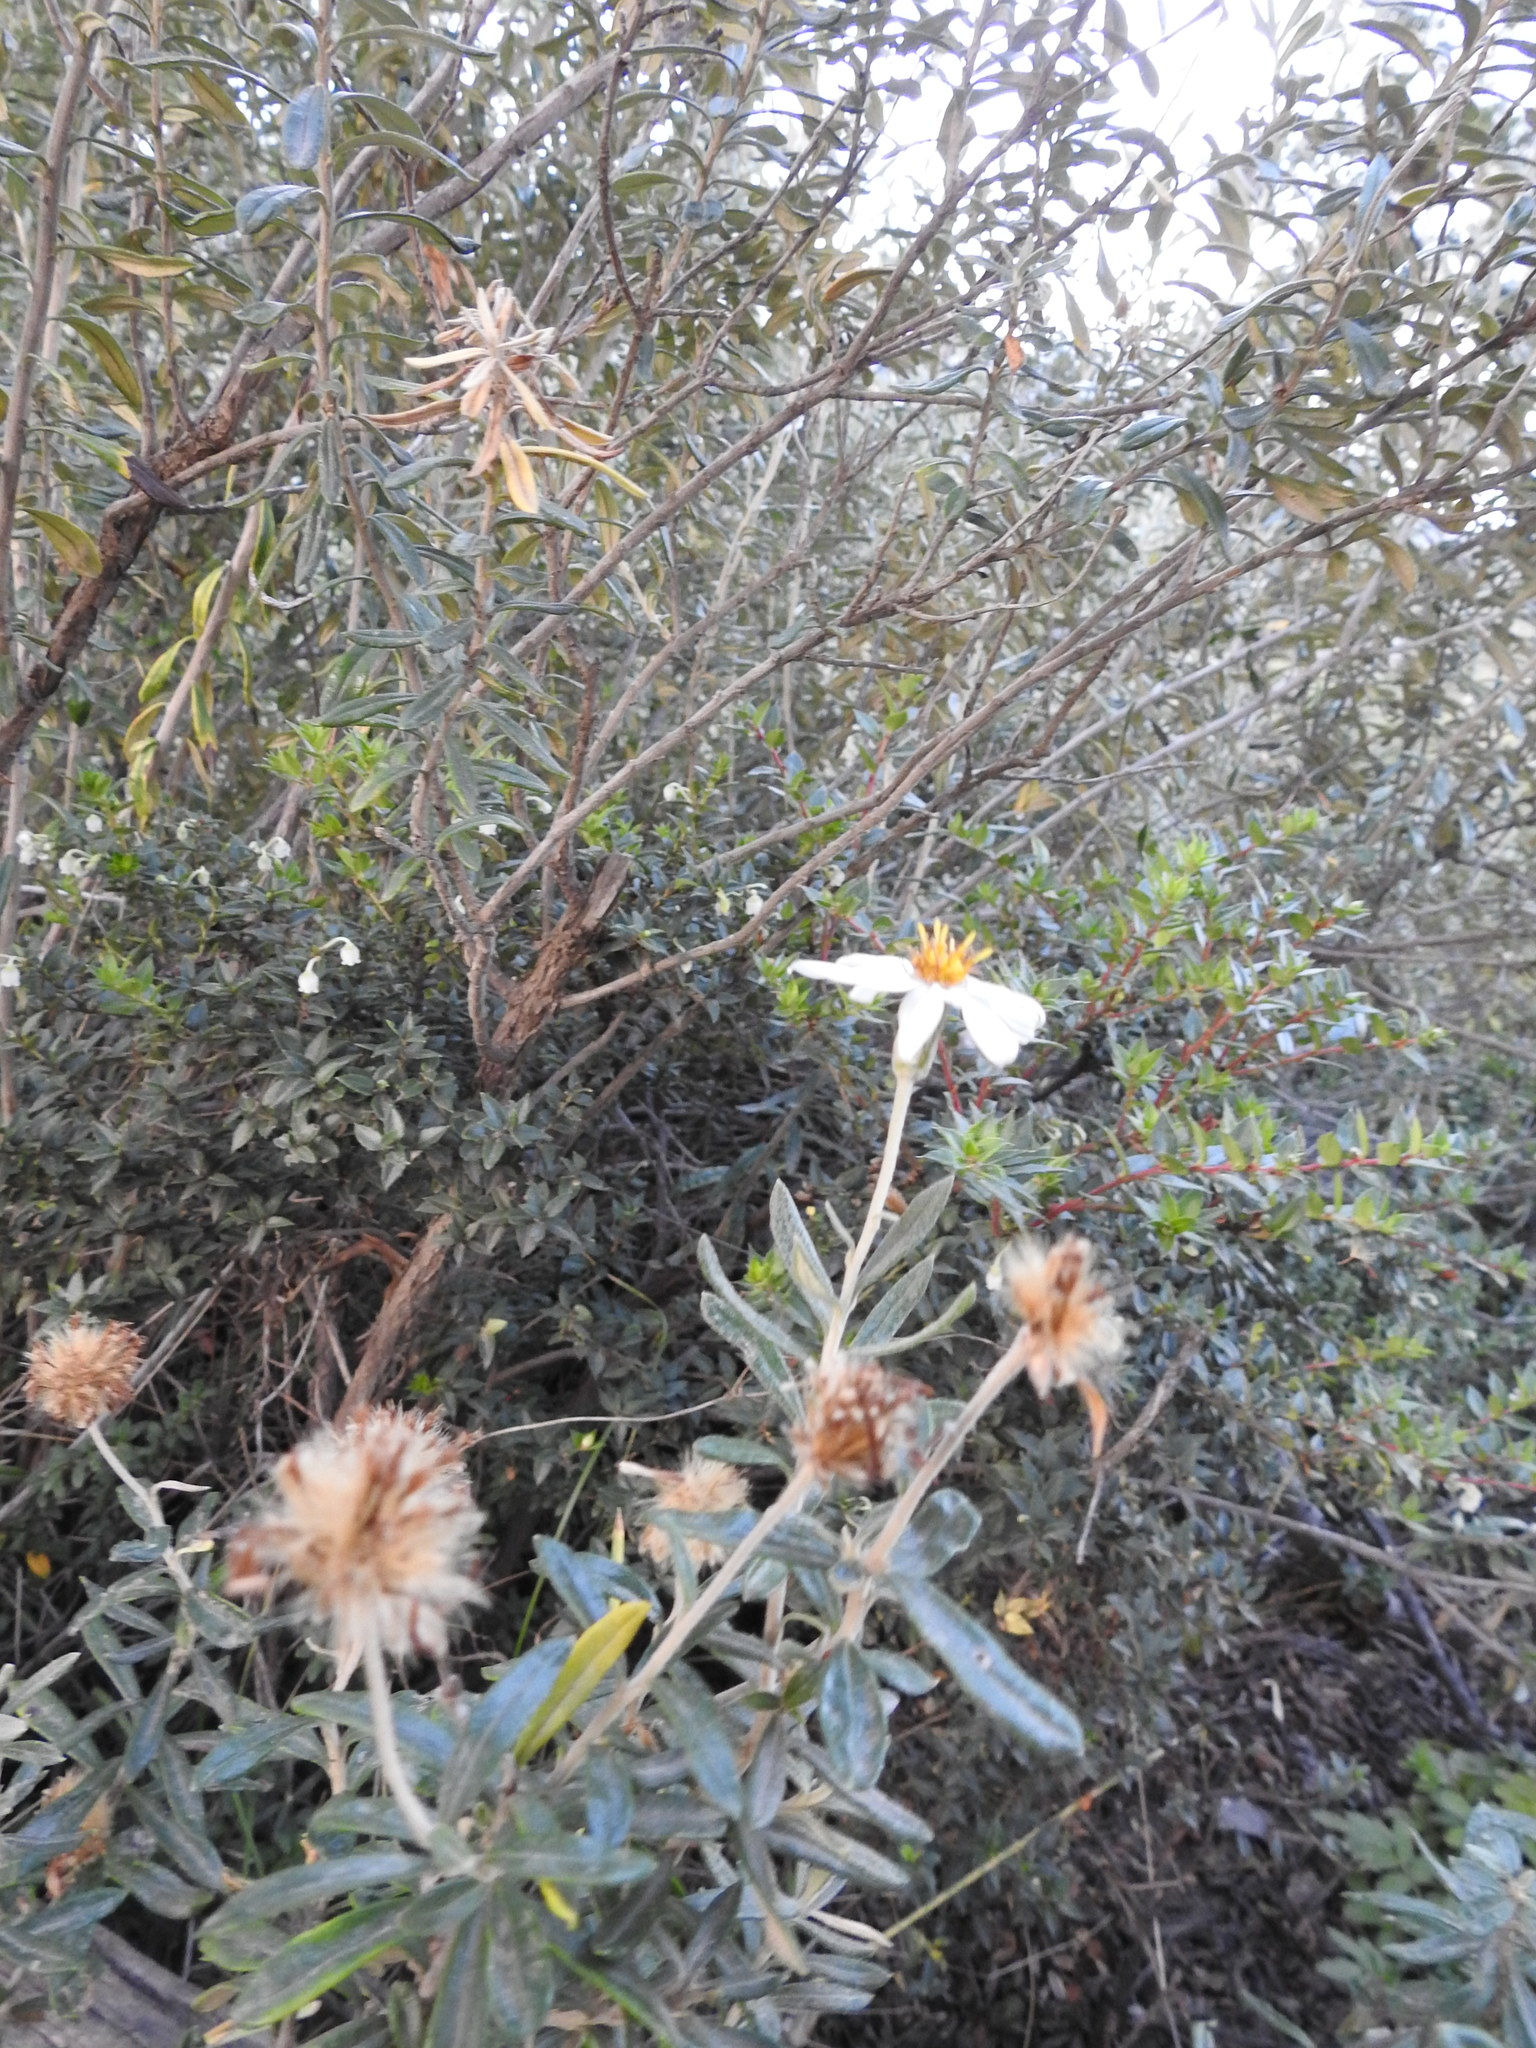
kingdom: Plantae
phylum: Tracheophyta
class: Magnoliopsida
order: Asterales
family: Asteraceae
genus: Chiliotrichum
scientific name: Chiliotrichum diffusum
